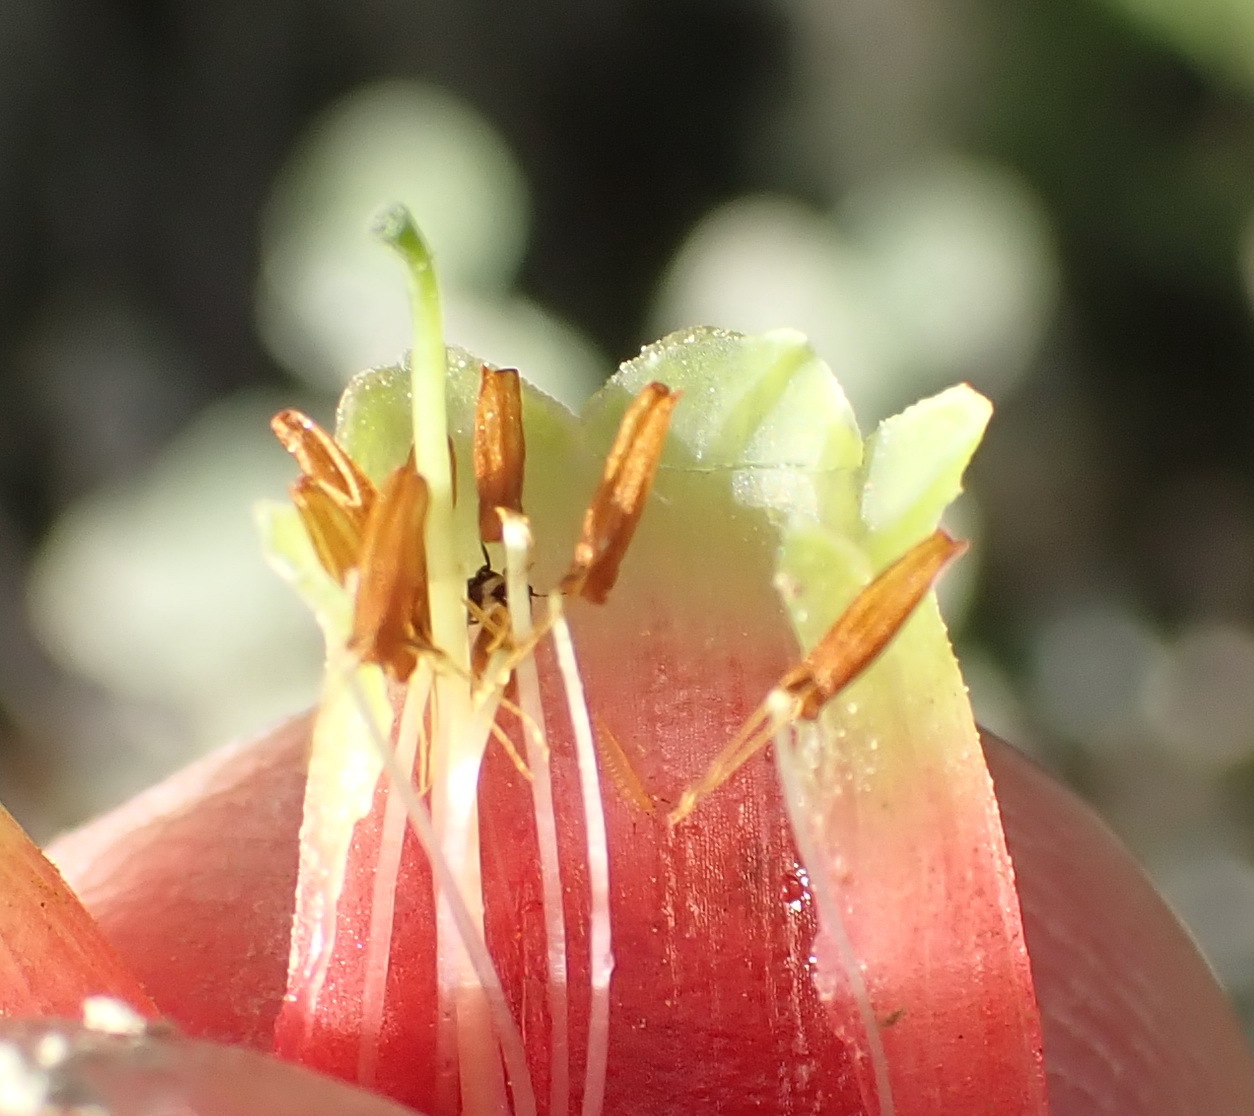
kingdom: Plantae
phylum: Tracheophyta
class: Magnoliopsida
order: Ericales
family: Ericaceae
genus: Erica
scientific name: Erica discolor
